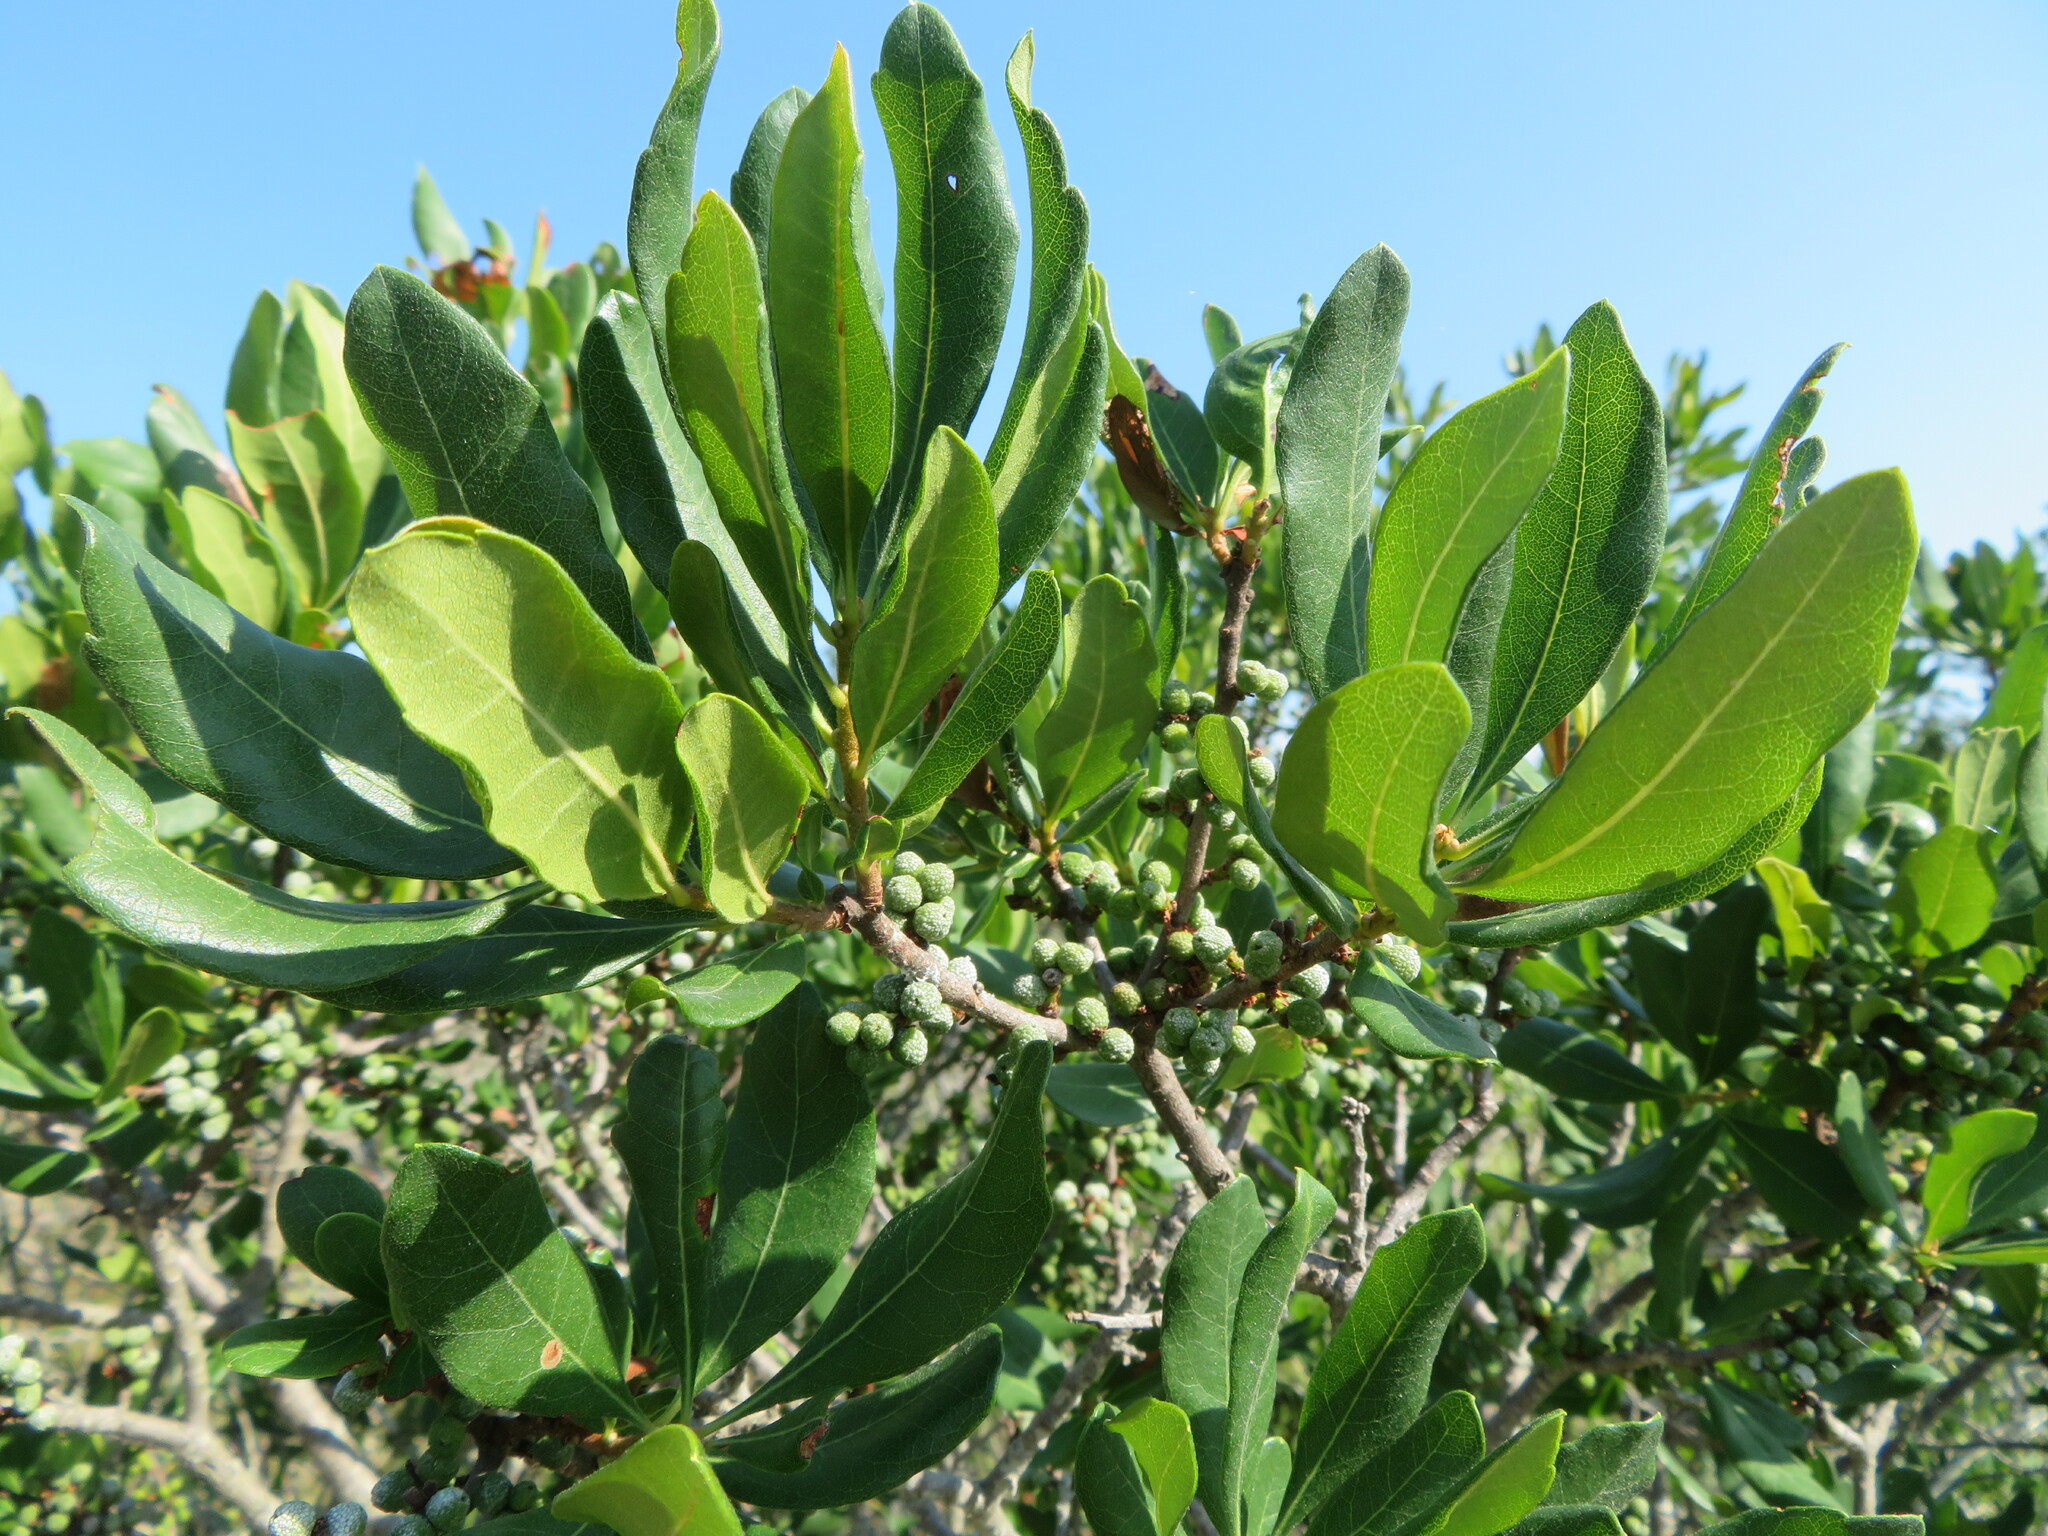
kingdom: Plantae
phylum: Tracheophyta
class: Magnoliopsida
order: Fagales
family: Myricaceae
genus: Morella
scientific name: Morella pensylvanica
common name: Northern bayberry
